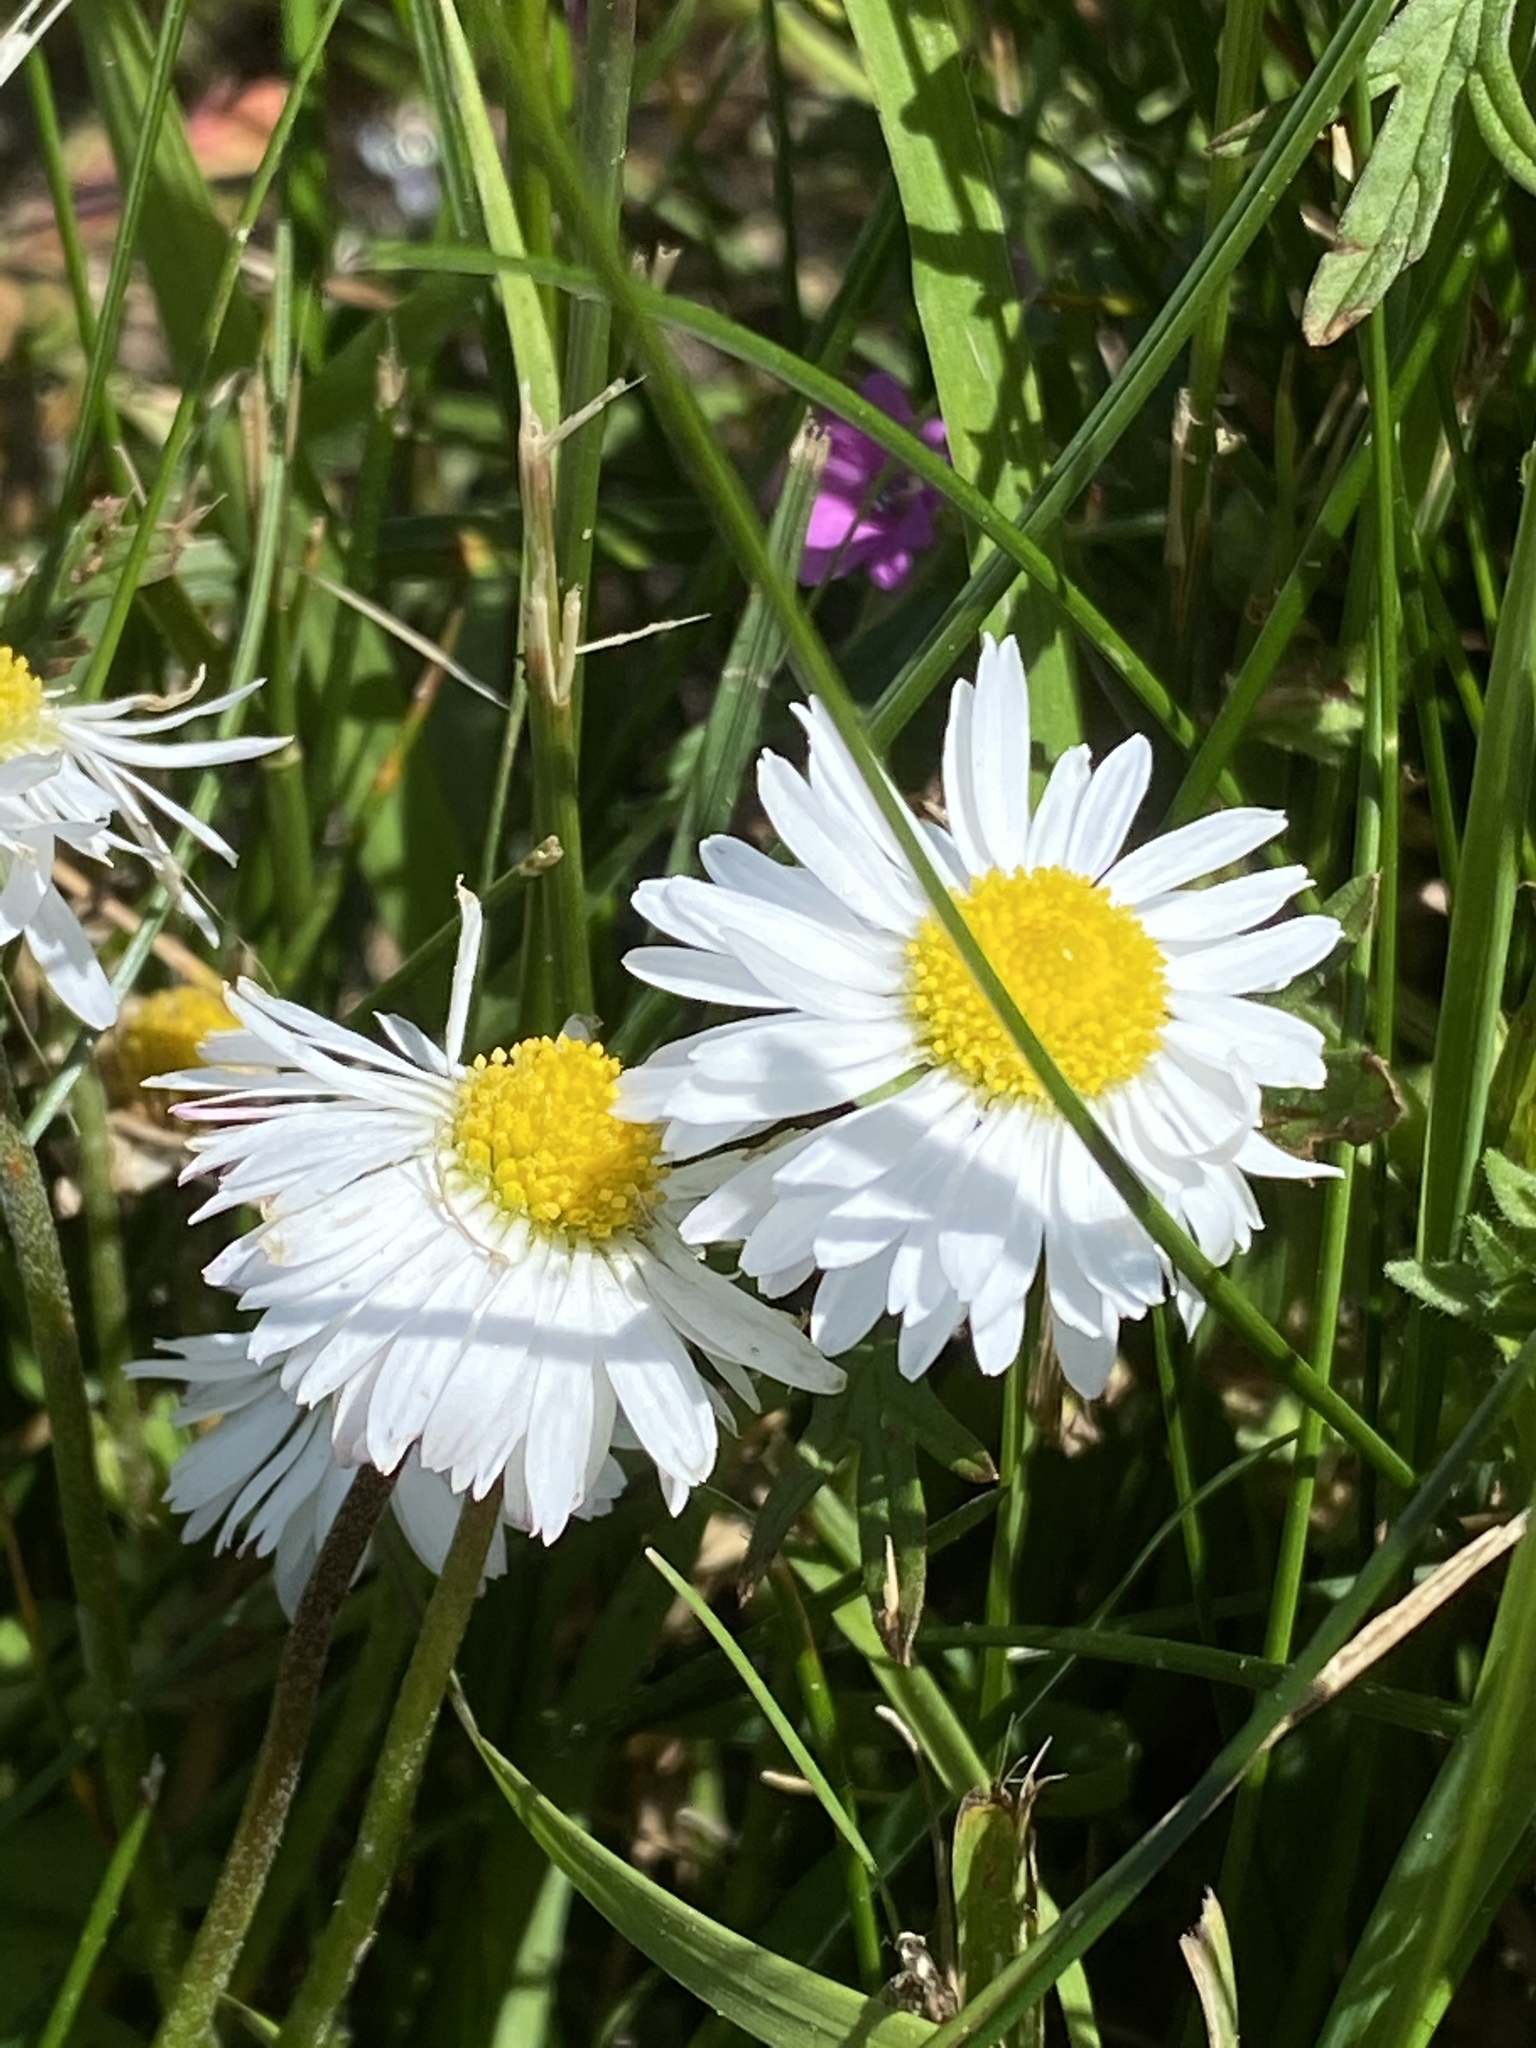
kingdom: Plantae
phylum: Tracheophyta
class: Magnoliopsida
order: Asterales
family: Asteraceae
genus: Bellis
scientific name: Bellis perennis
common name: Lawndaisy
